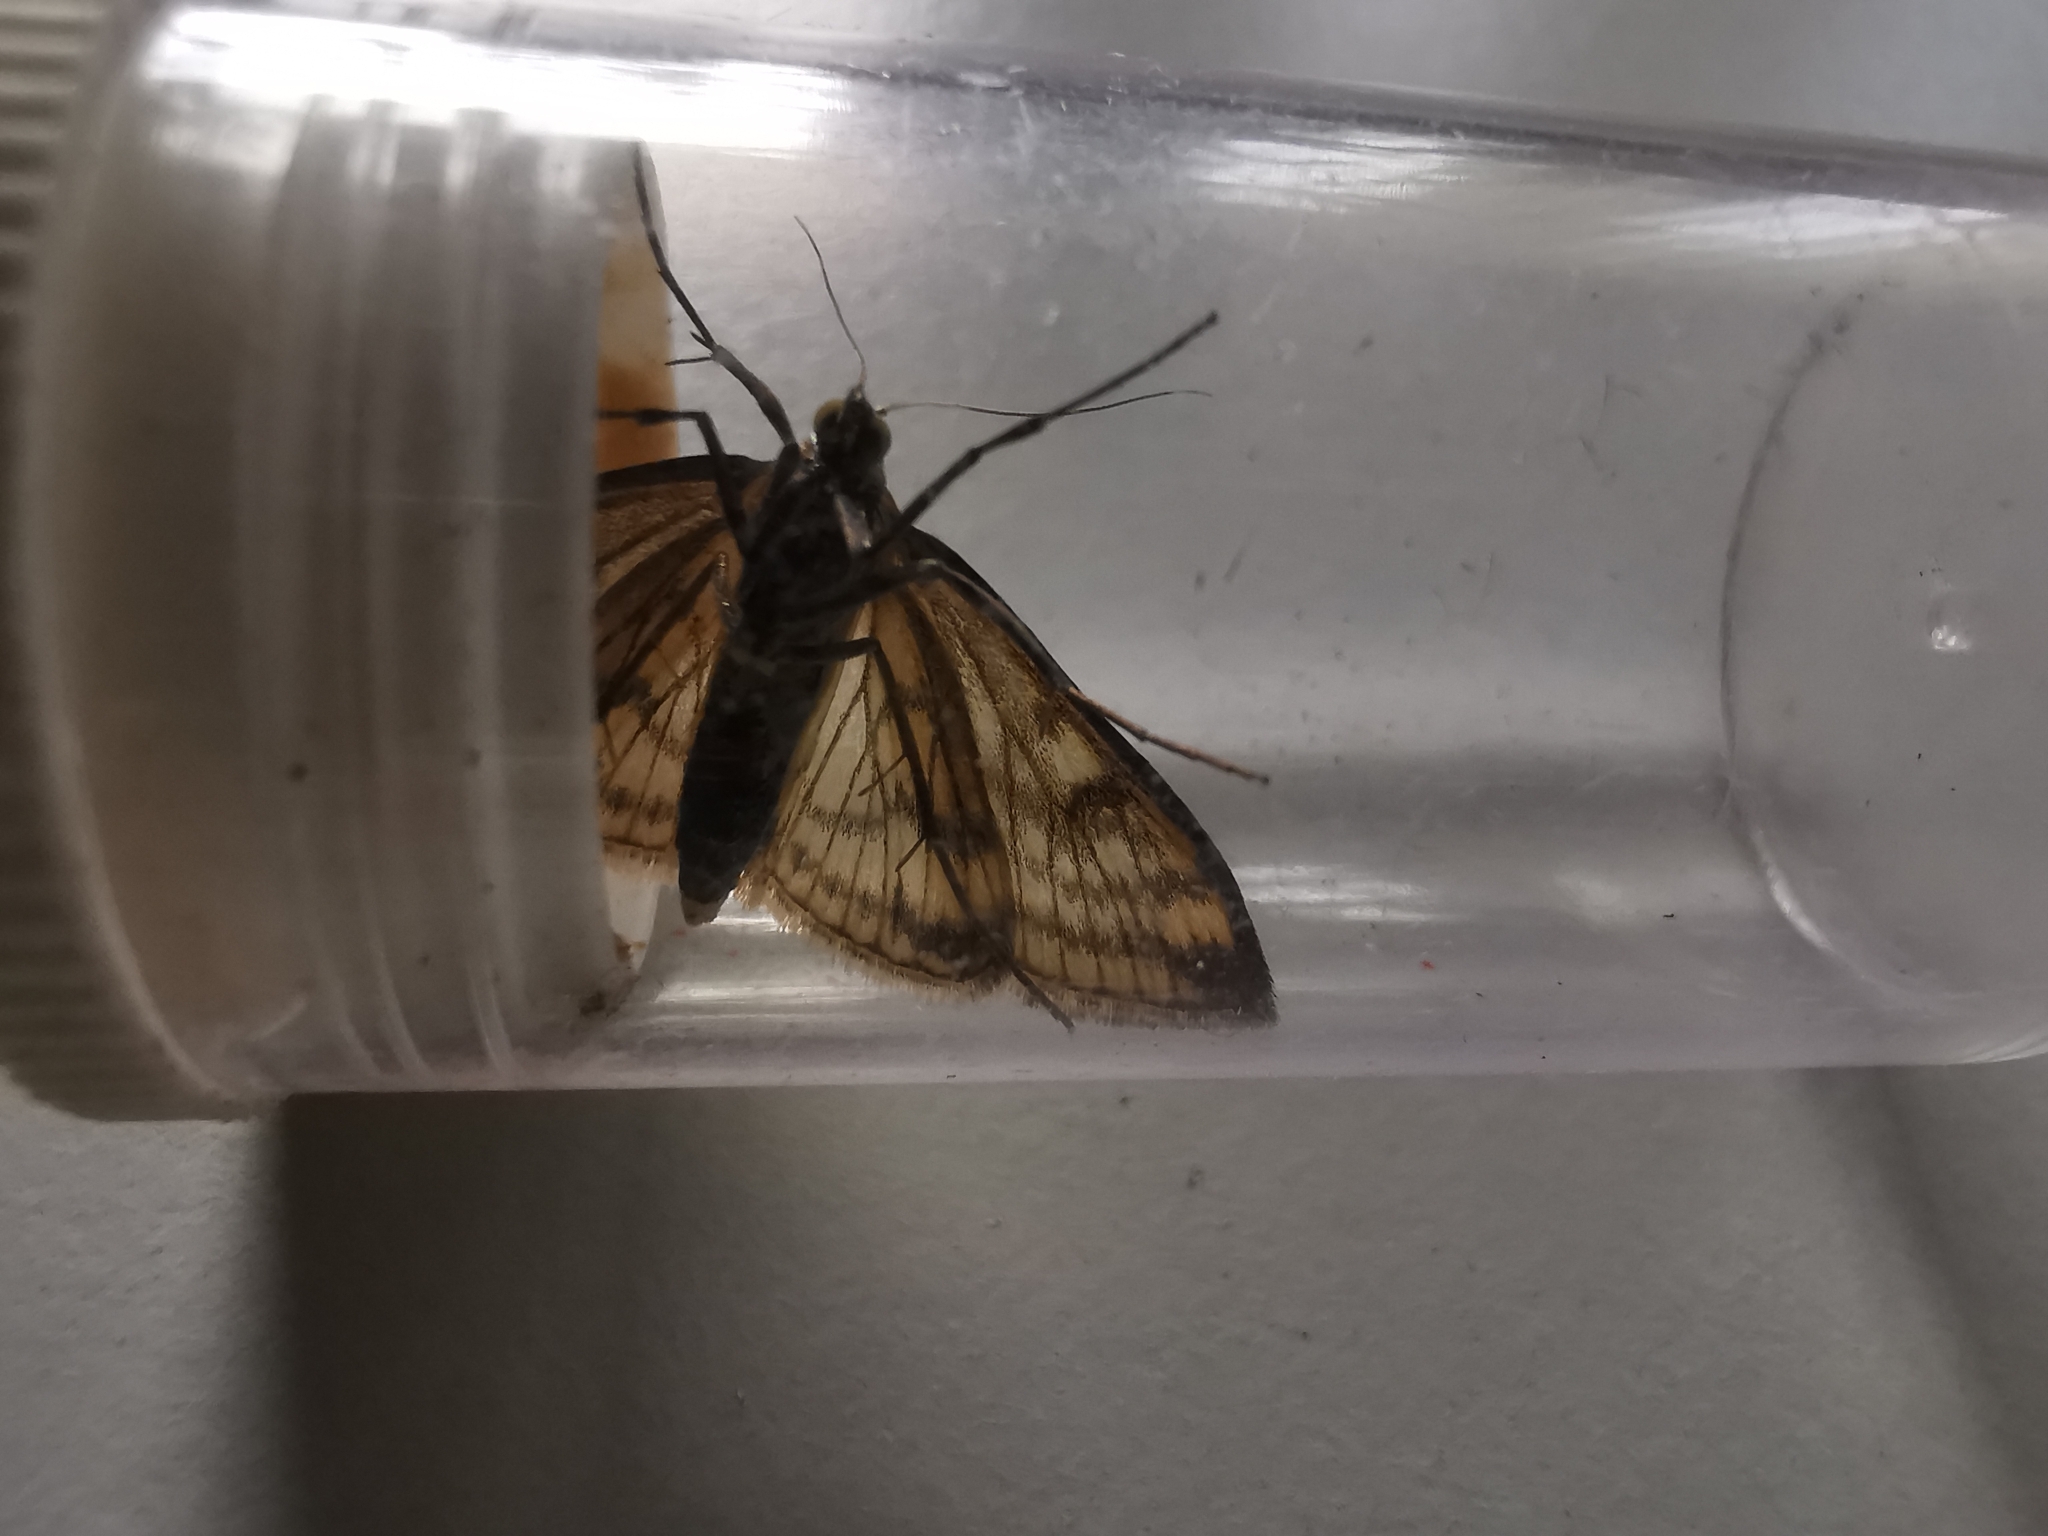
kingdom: Animalia
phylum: Arthropoda
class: Insecta
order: Lepidoptera
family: Crambidae
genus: Sitochroa
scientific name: Sitochroa verticalis
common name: Lesser pearl
